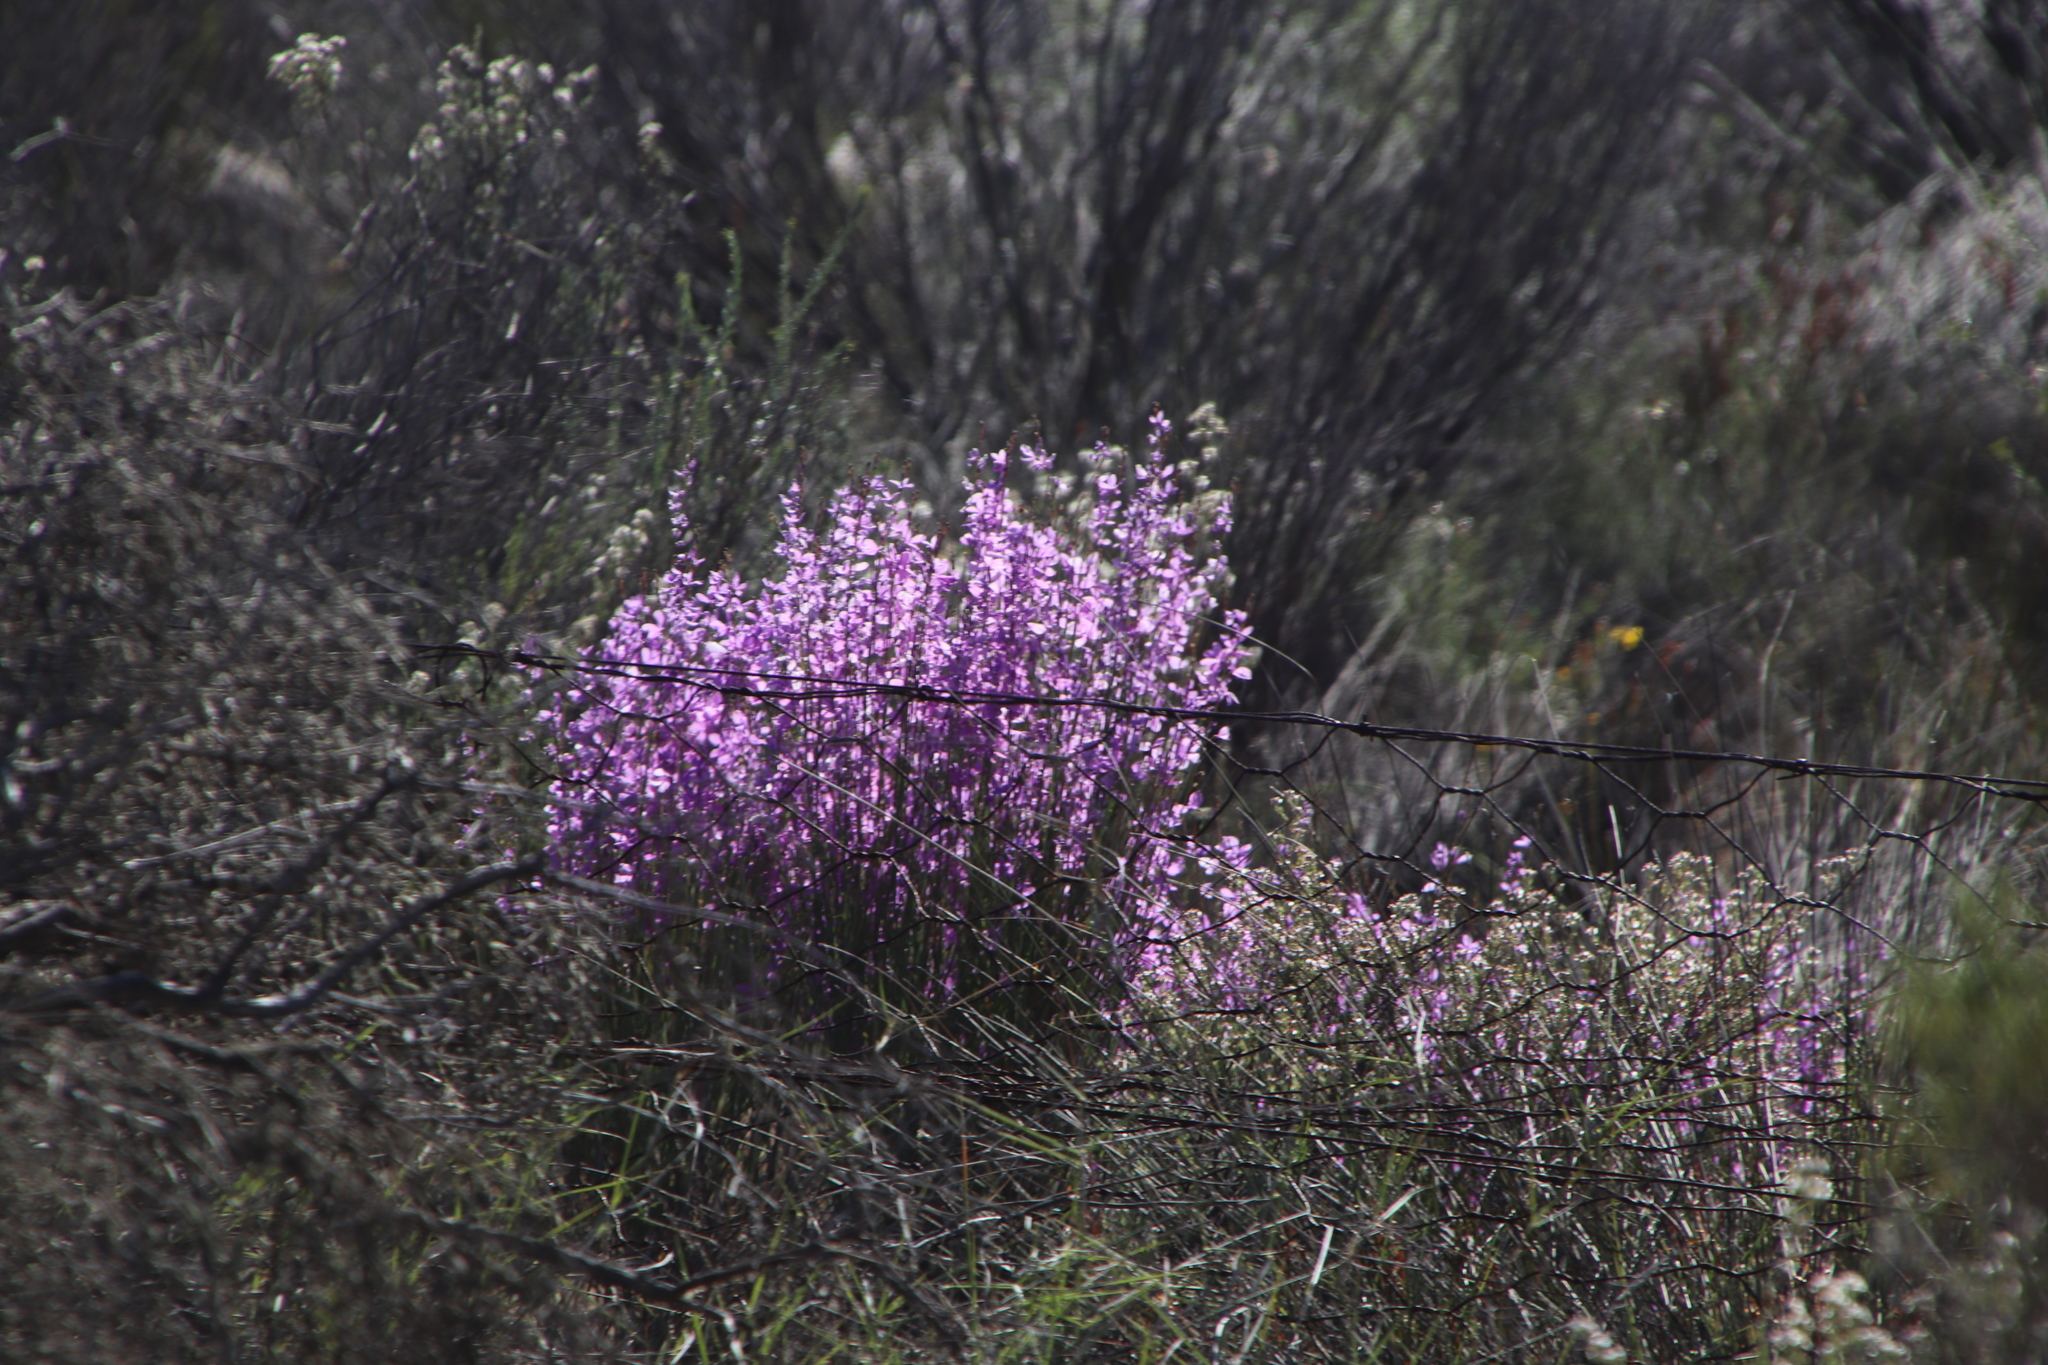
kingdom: Plantae
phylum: Tracheophyta
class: Magnoliopsida
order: Brassicales
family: Brassicaceae
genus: Heliophila
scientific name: Heliophila juncea
